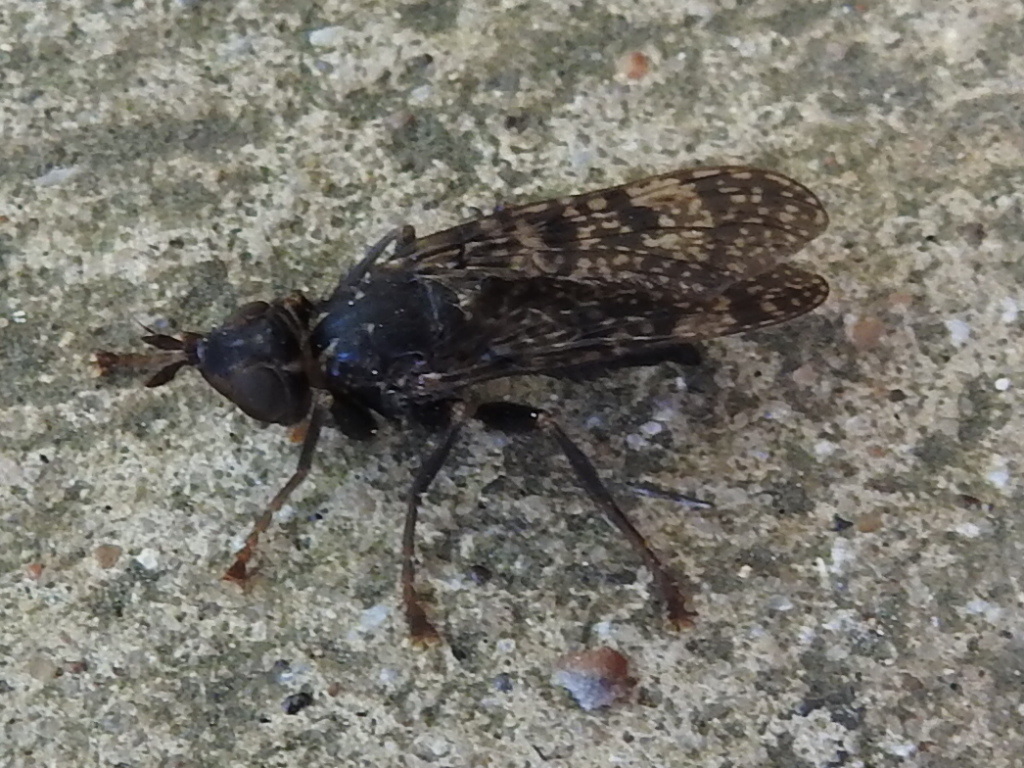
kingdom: Animalia
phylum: Arthropoda
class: Insecta
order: Diptera
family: Pyrgotidae
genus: Boreothrinax
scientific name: Boreothrinax
